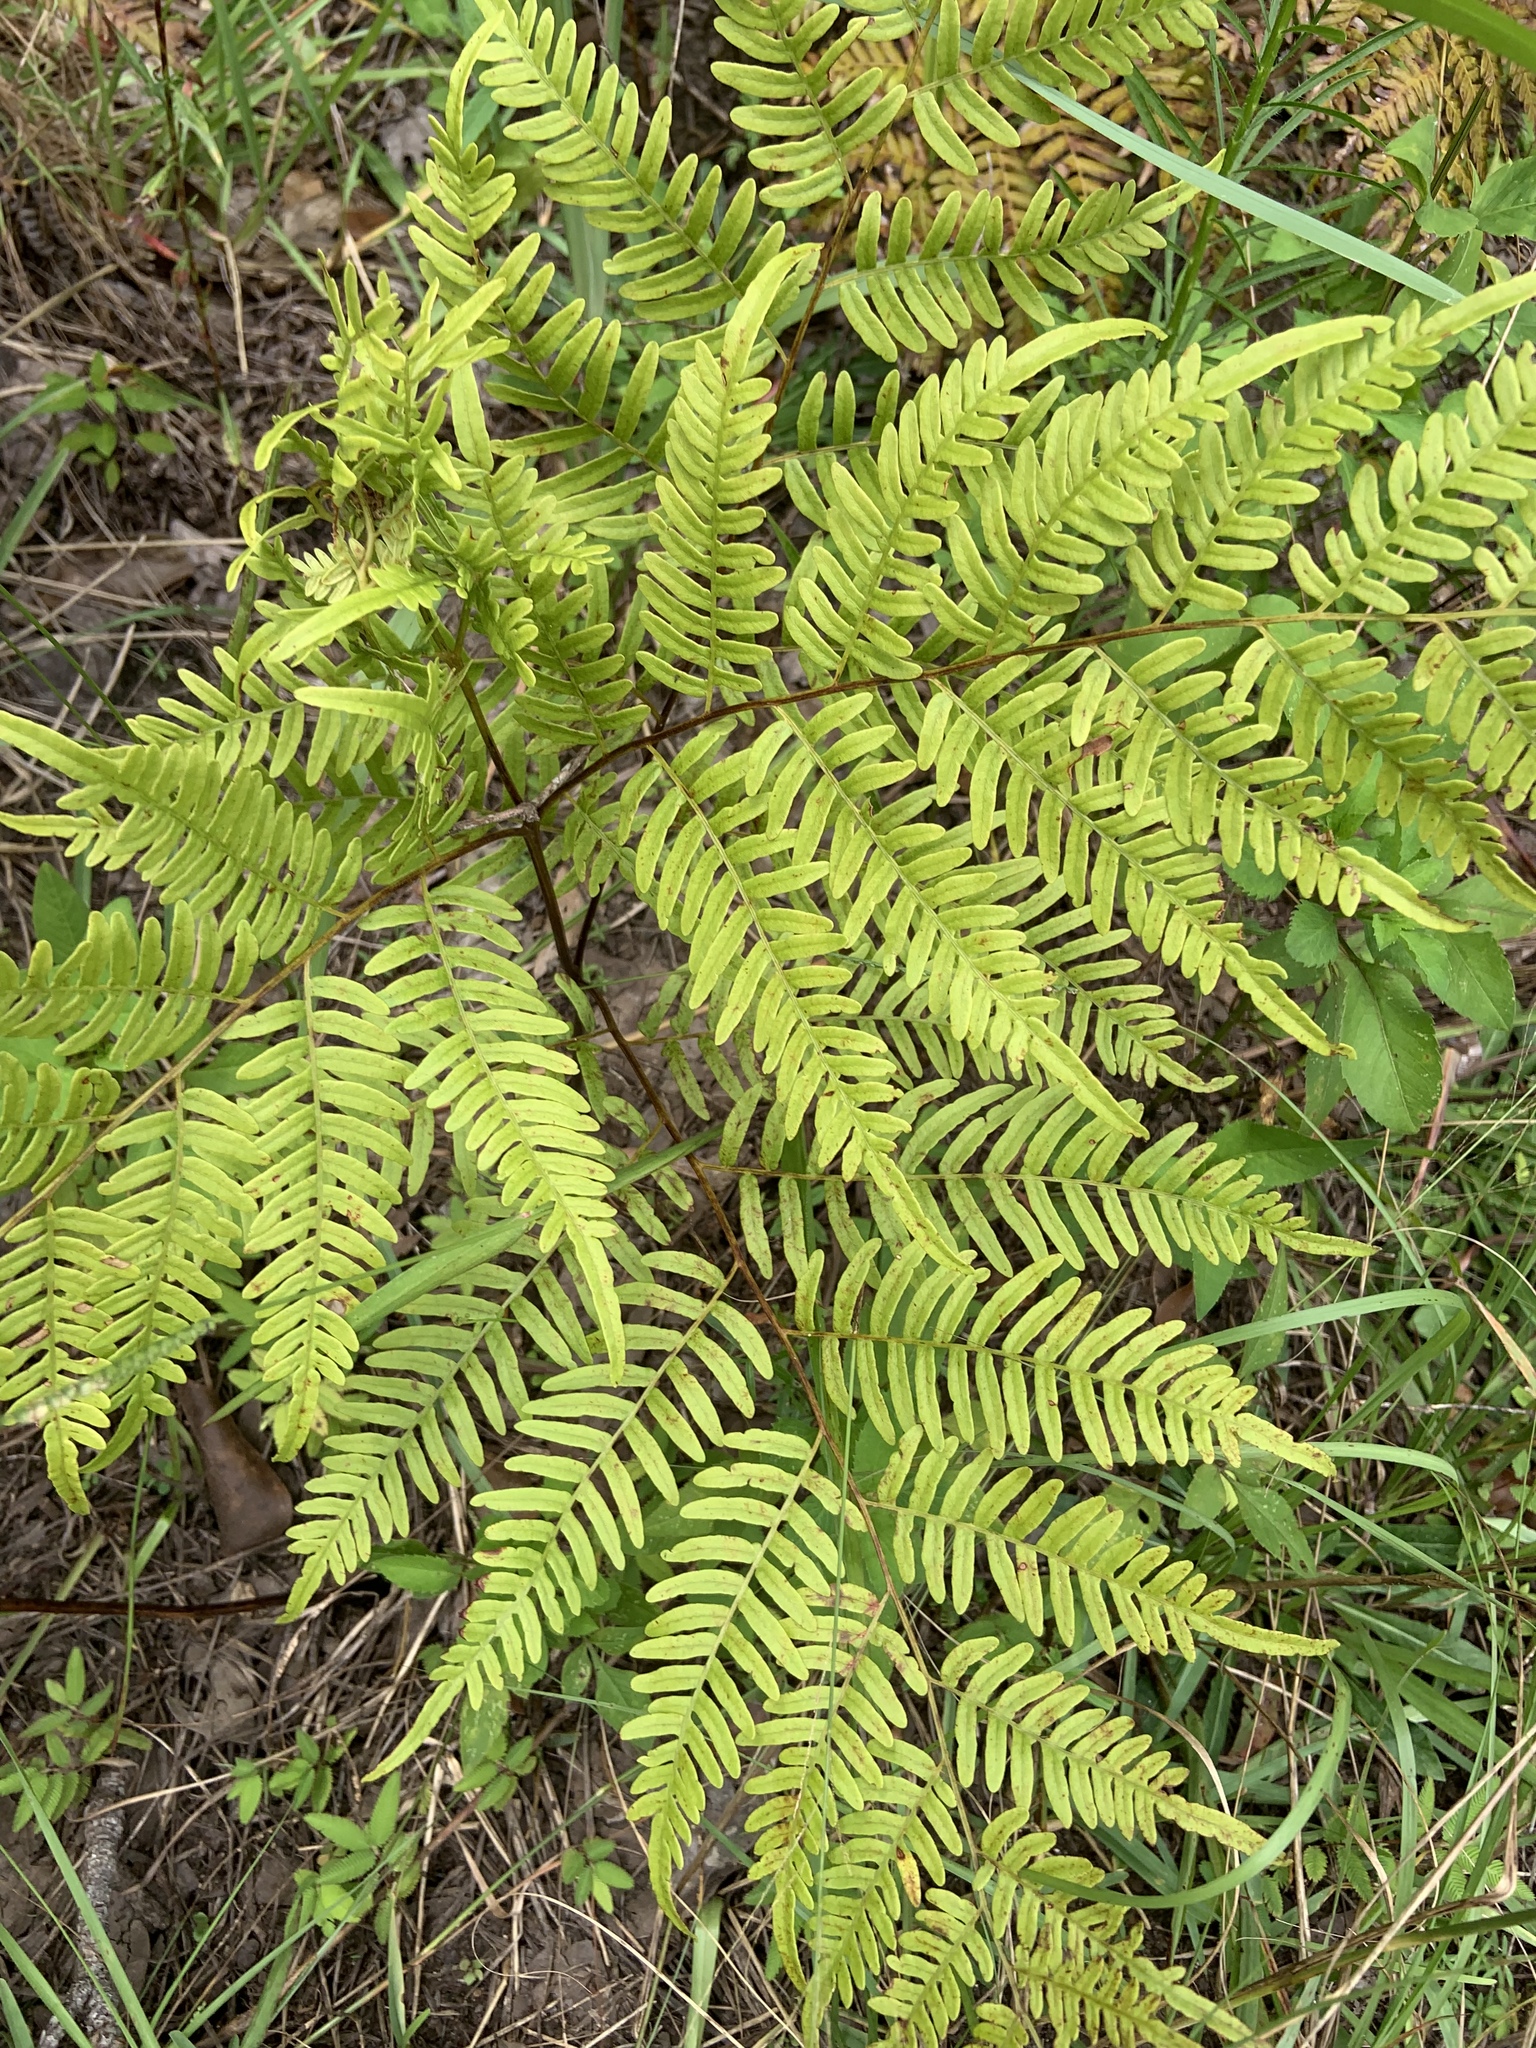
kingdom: Plantae
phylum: Tracheophyta
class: Polypodiopsida
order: Polypodiales
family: Dennstaedtiaceae
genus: Pteridium
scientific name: Pteridium
